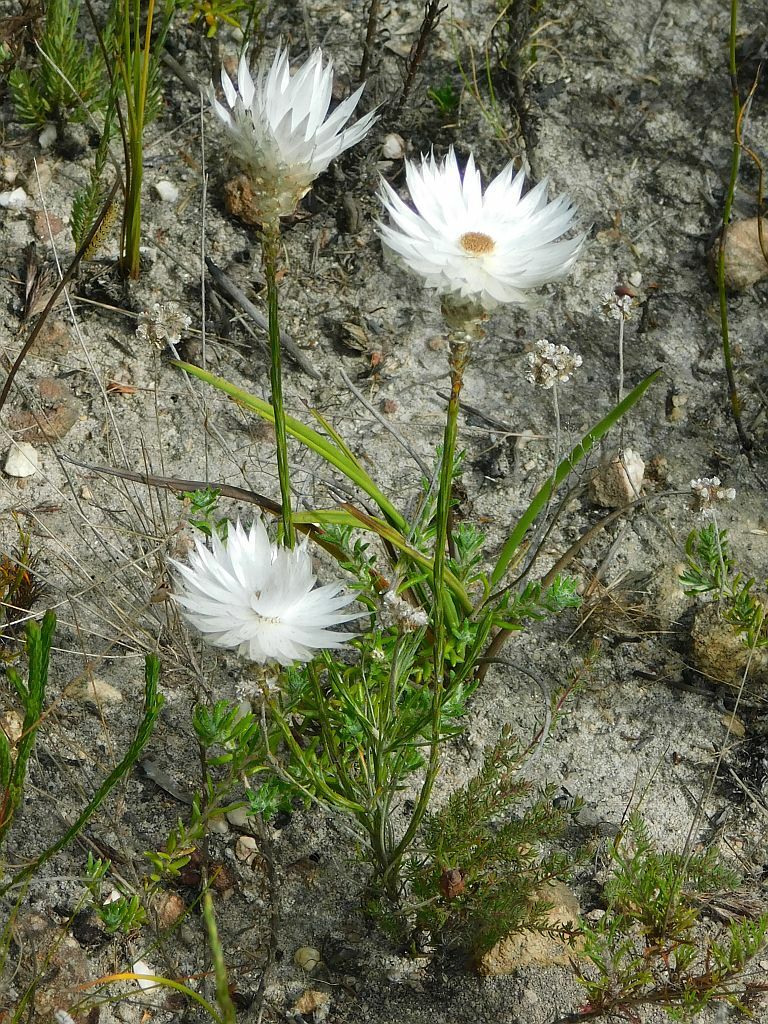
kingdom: Plantae
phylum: Tracheophyta
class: Magnoliopsida
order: Asterales
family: Asteraceae
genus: Edmondia
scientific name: Edmondia sesamoides
